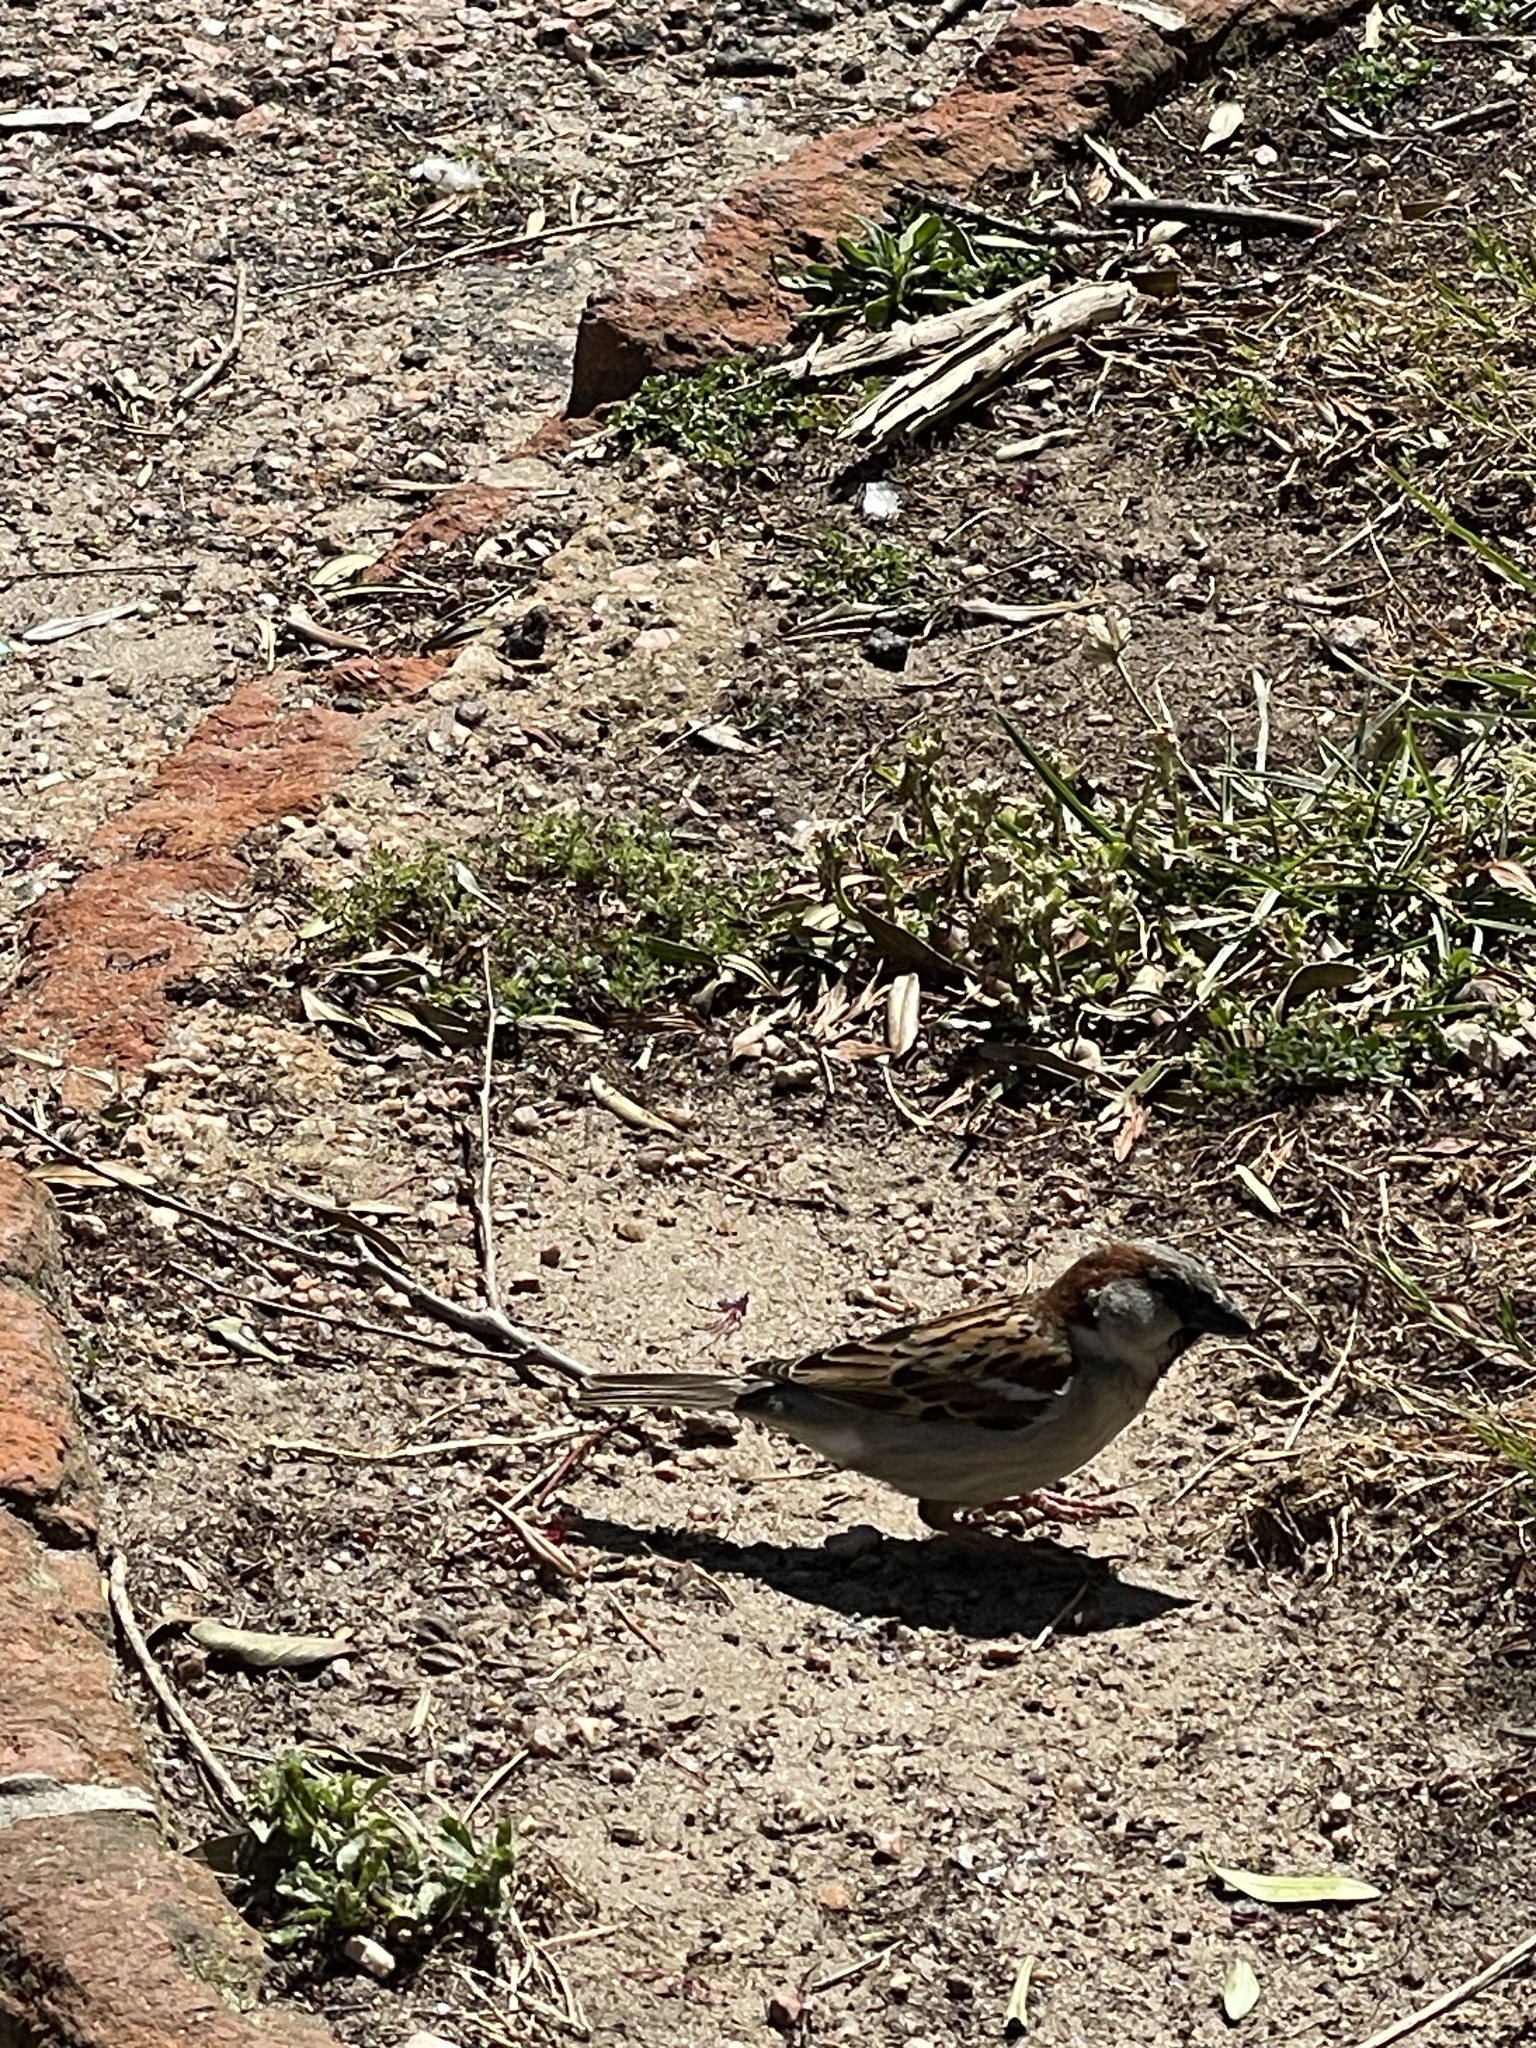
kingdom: Animalia
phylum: Chordata
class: Aves
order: Passeriformes
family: Passeridae
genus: Passer
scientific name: Passer domesticus
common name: House sparrow
